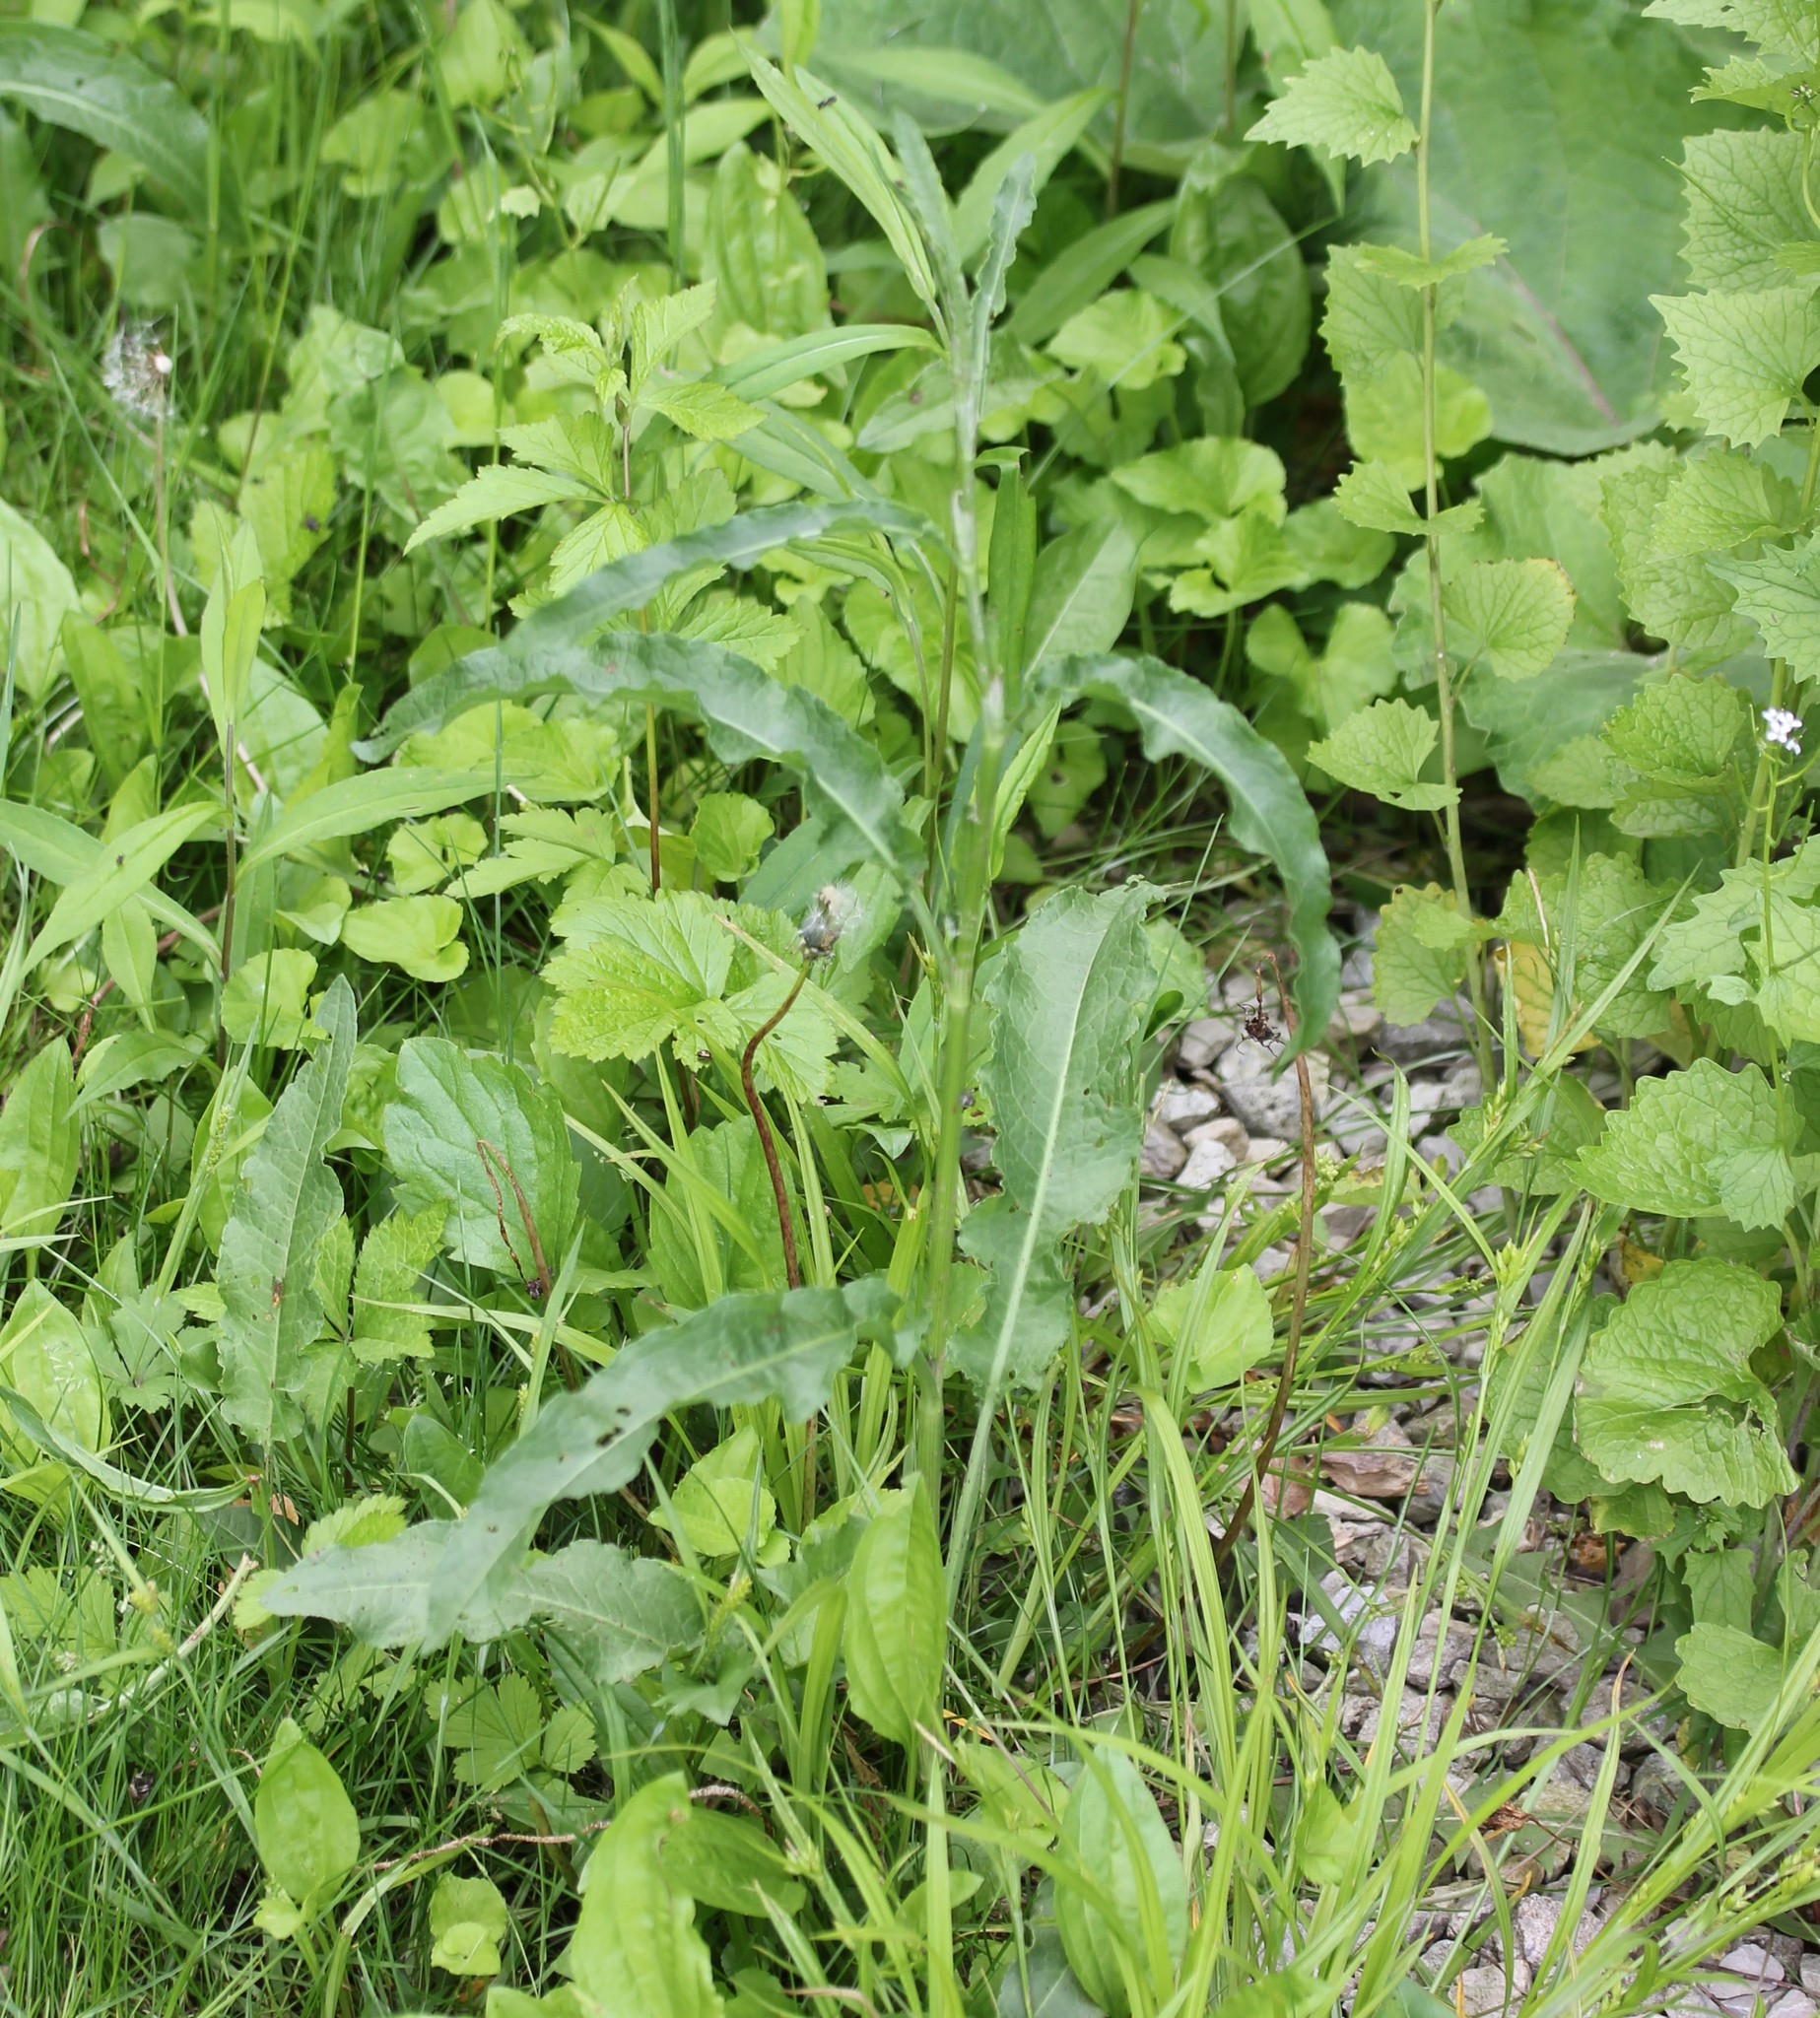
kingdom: Plantae
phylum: Tracheophyta
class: Magnoliopsida
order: Caryophyllales
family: Polygonaceae
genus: Rumex
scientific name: Rumex crispus
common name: Curled dock
